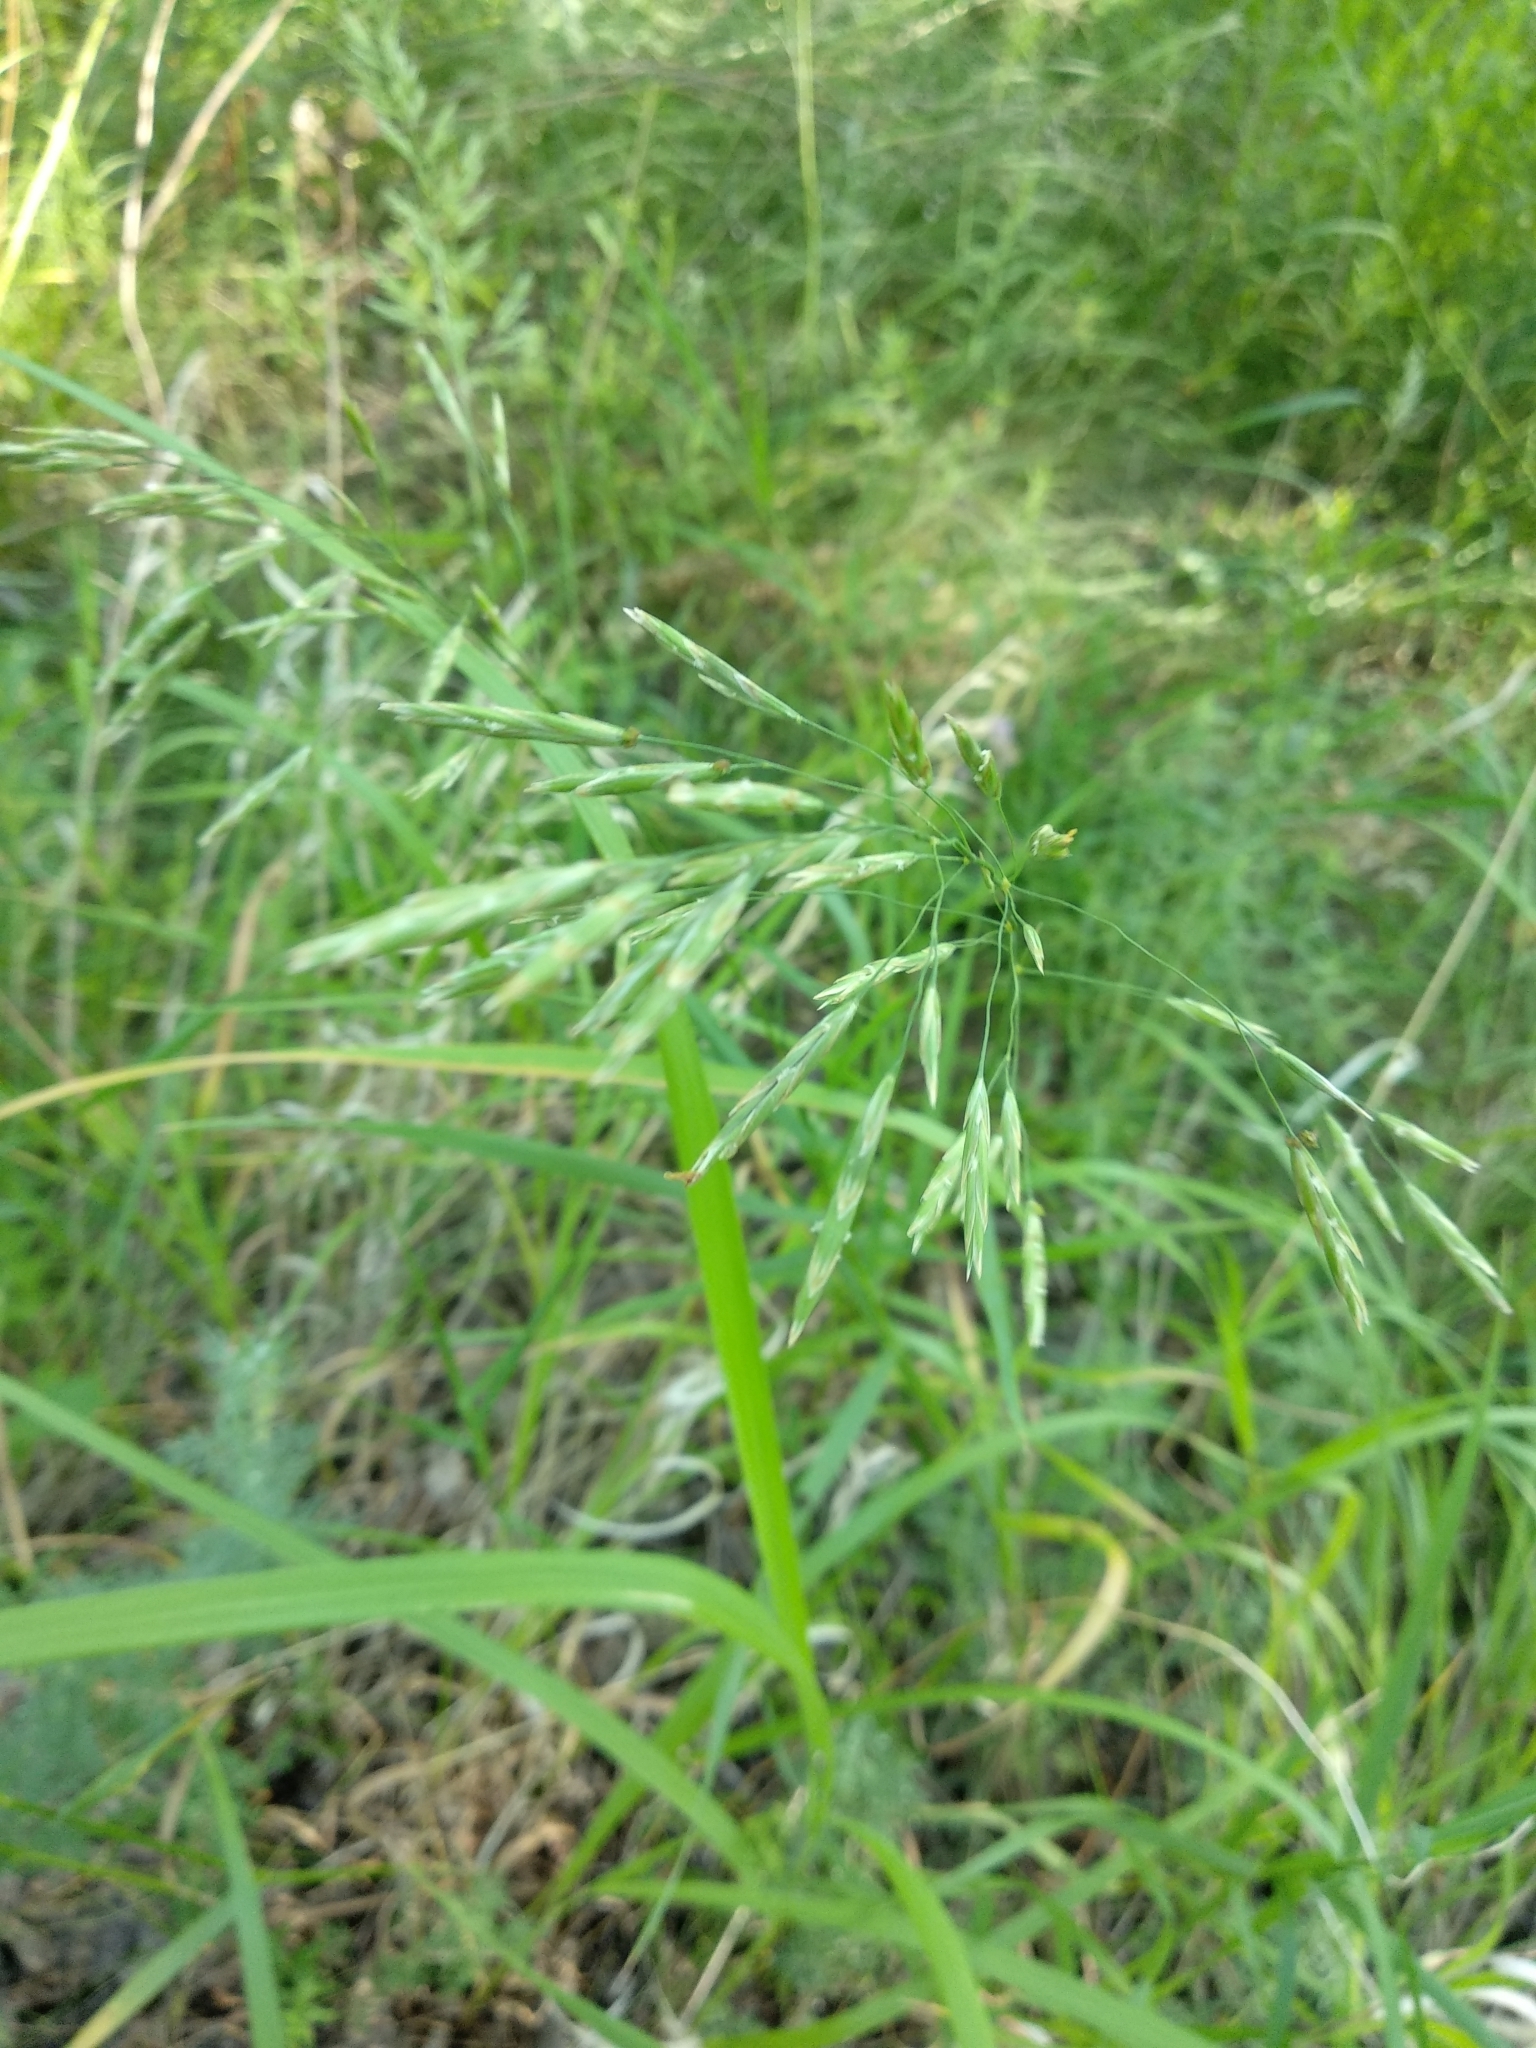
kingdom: Plantae
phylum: Tracheophyta
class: Liliopsida
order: Poales
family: Poaceae
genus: Bromus
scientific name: Bromus inermis
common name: Smooth brome
